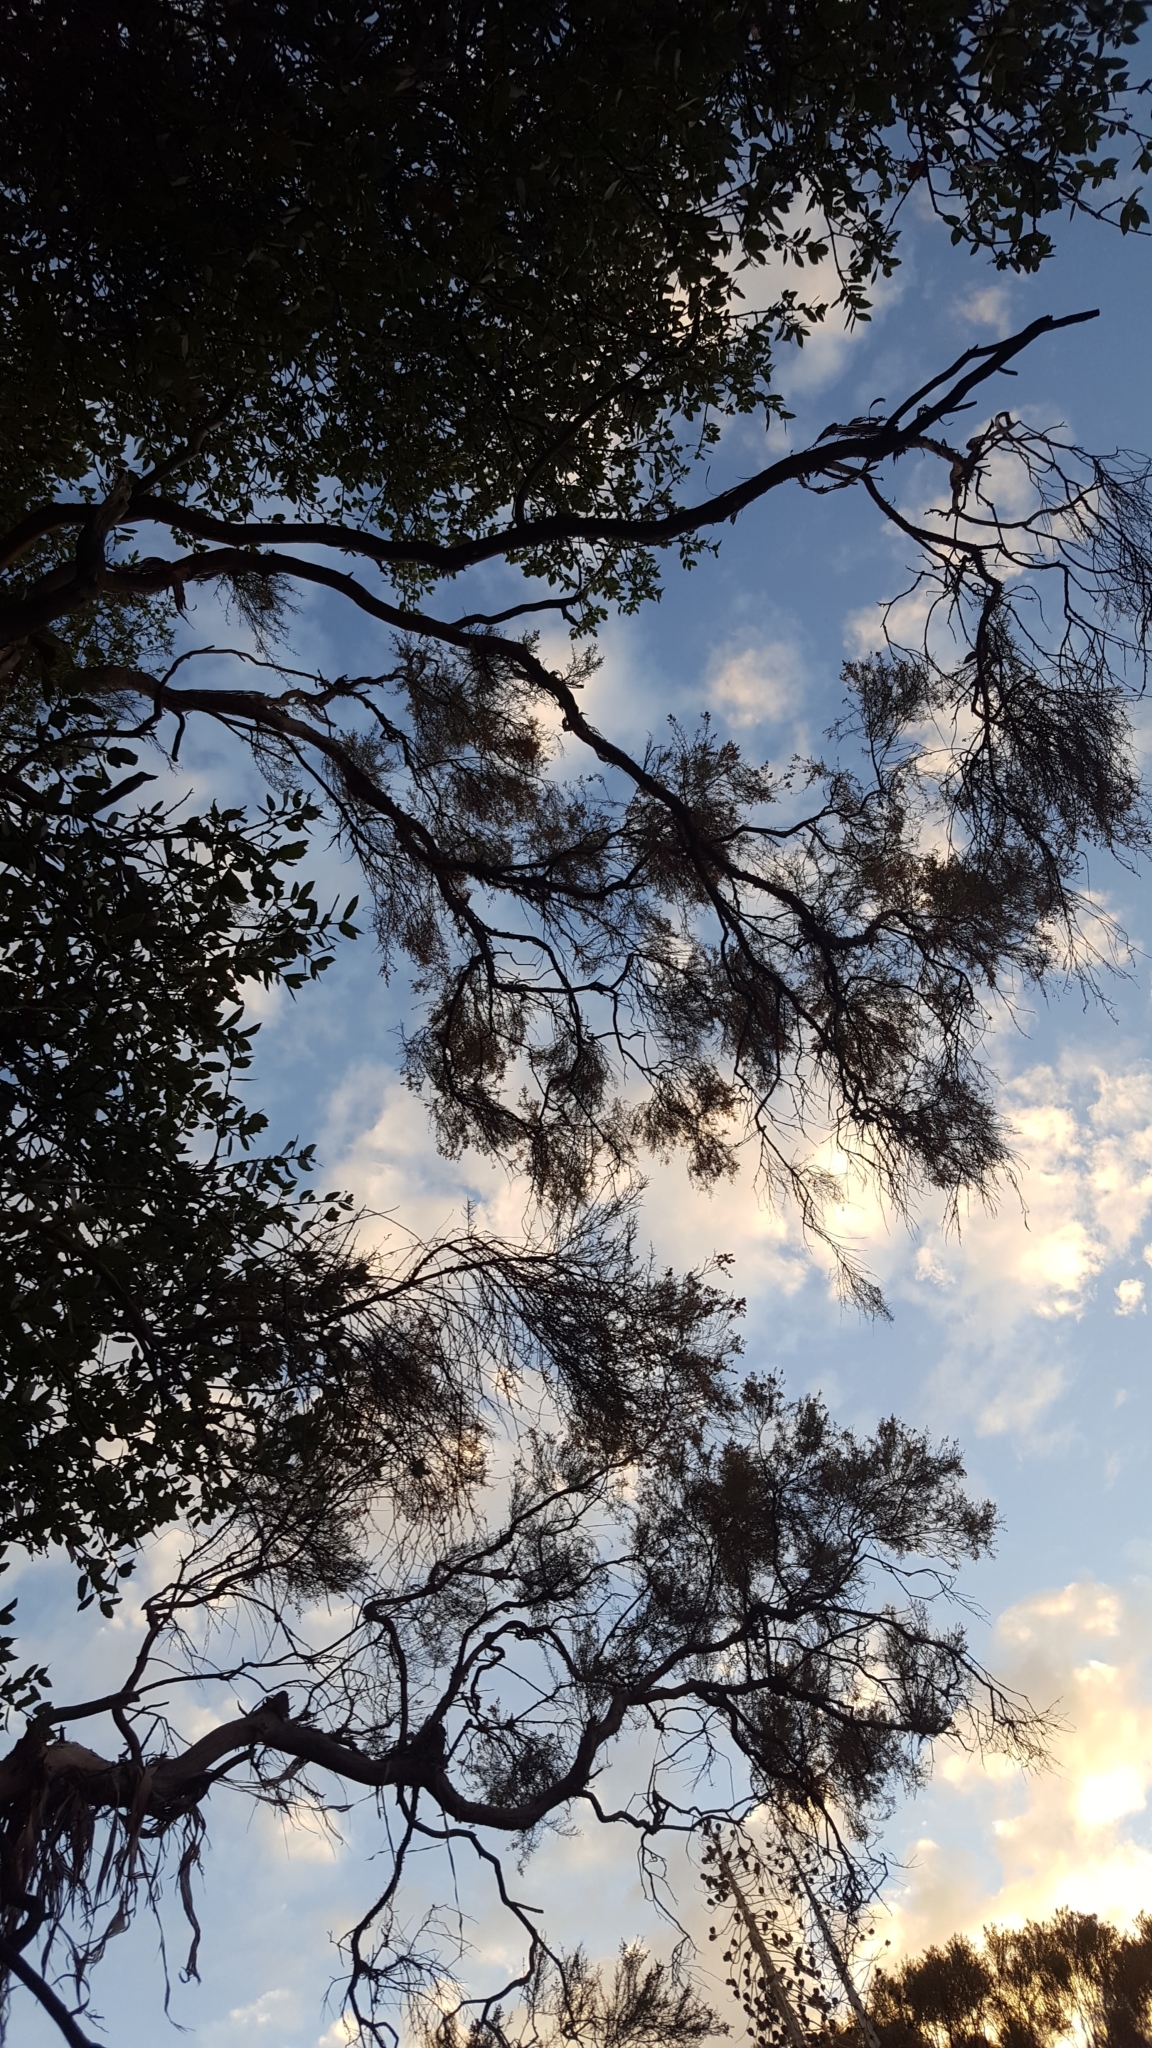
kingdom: Plantae
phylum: Tracheophyta
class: Magnoliopsida
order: Rosales
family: Rosaceae
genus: Adenostoma
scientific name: Adenostoma sparsifolium
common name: Red shank
